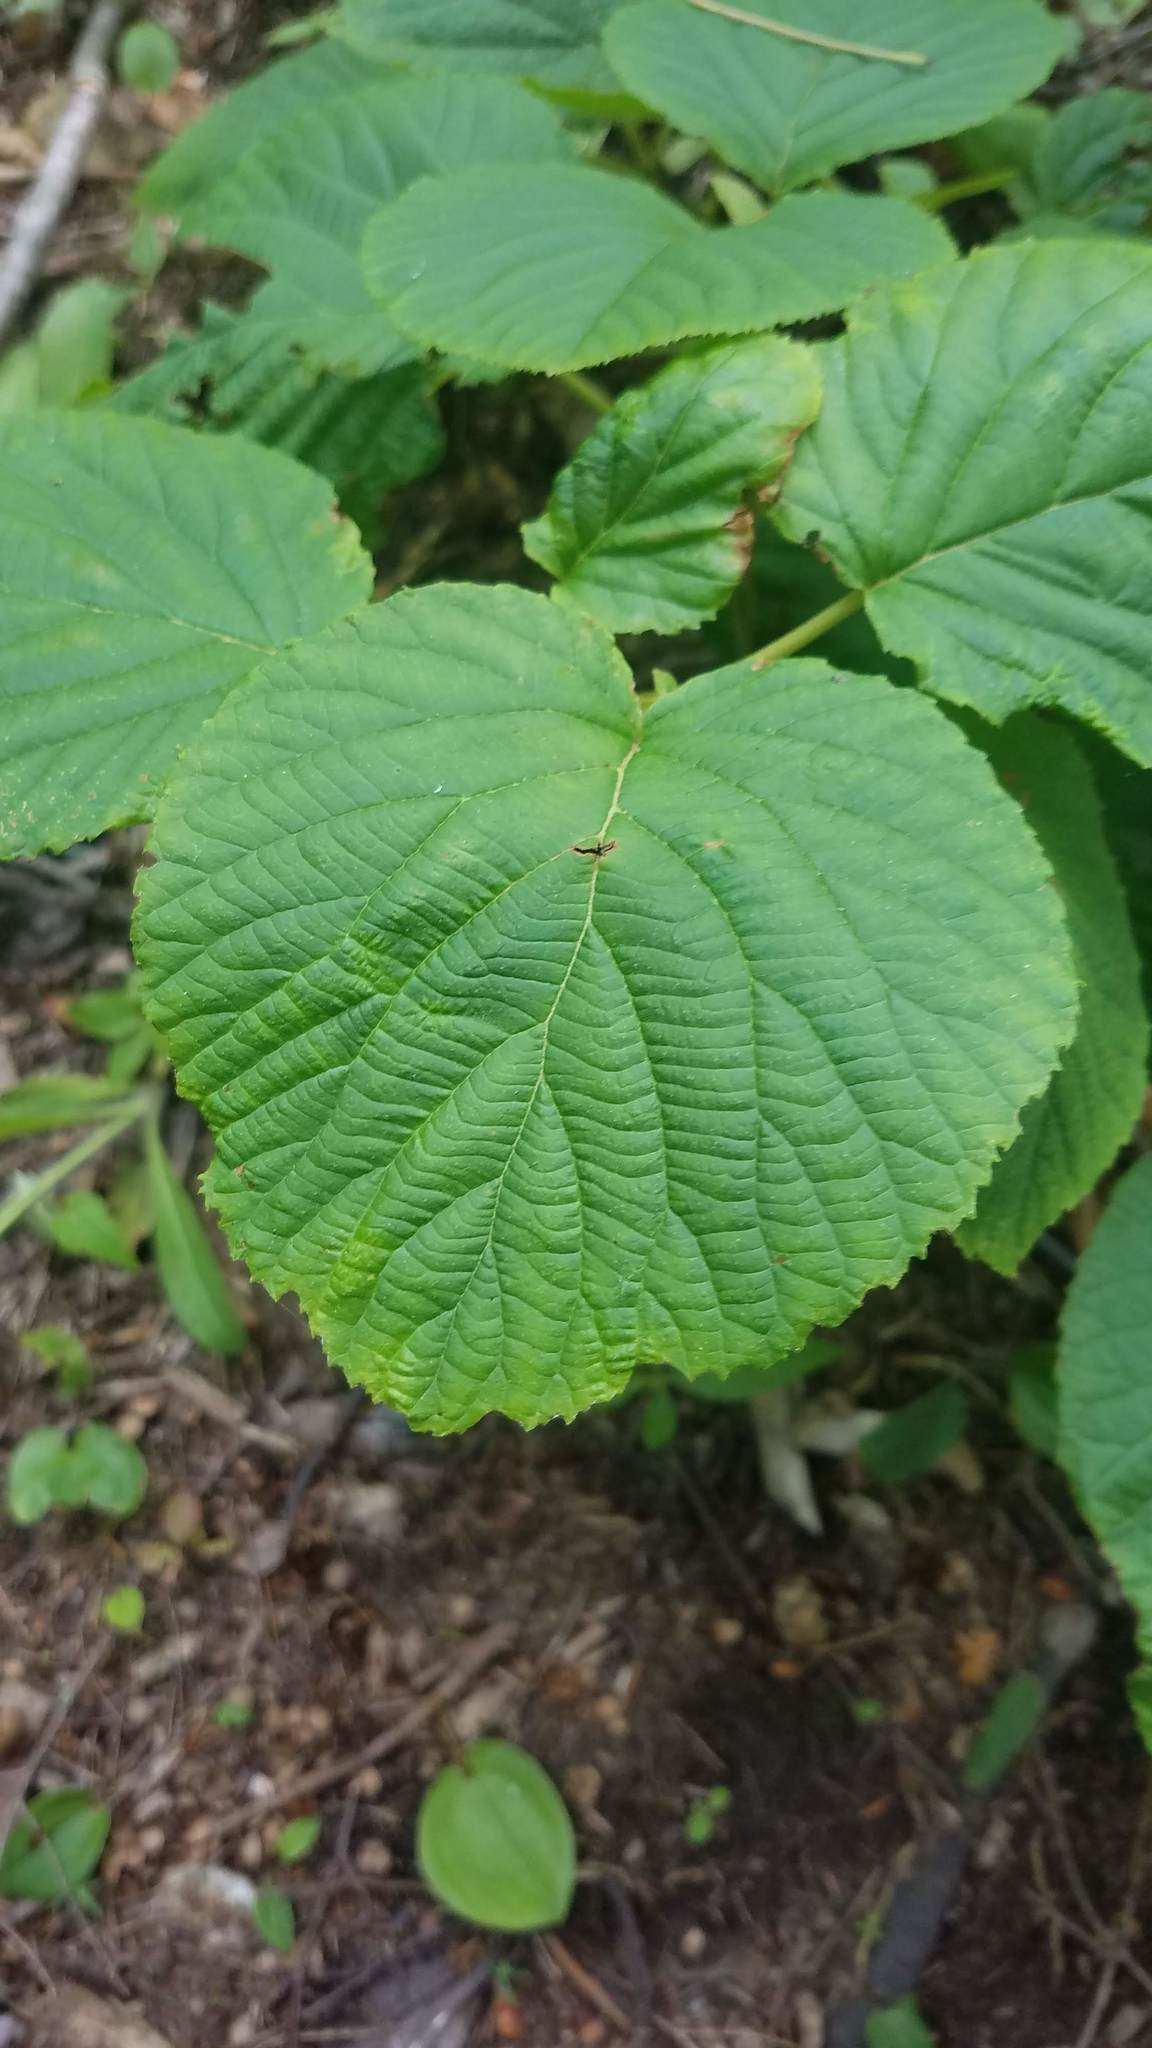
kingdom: Plantae
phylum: Tracheophyta
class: Magnoliopsida
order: Dipsacales
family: Viburnaceae
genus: Viburnum
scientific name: Viburnum lantanoides
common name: Hobblebush
